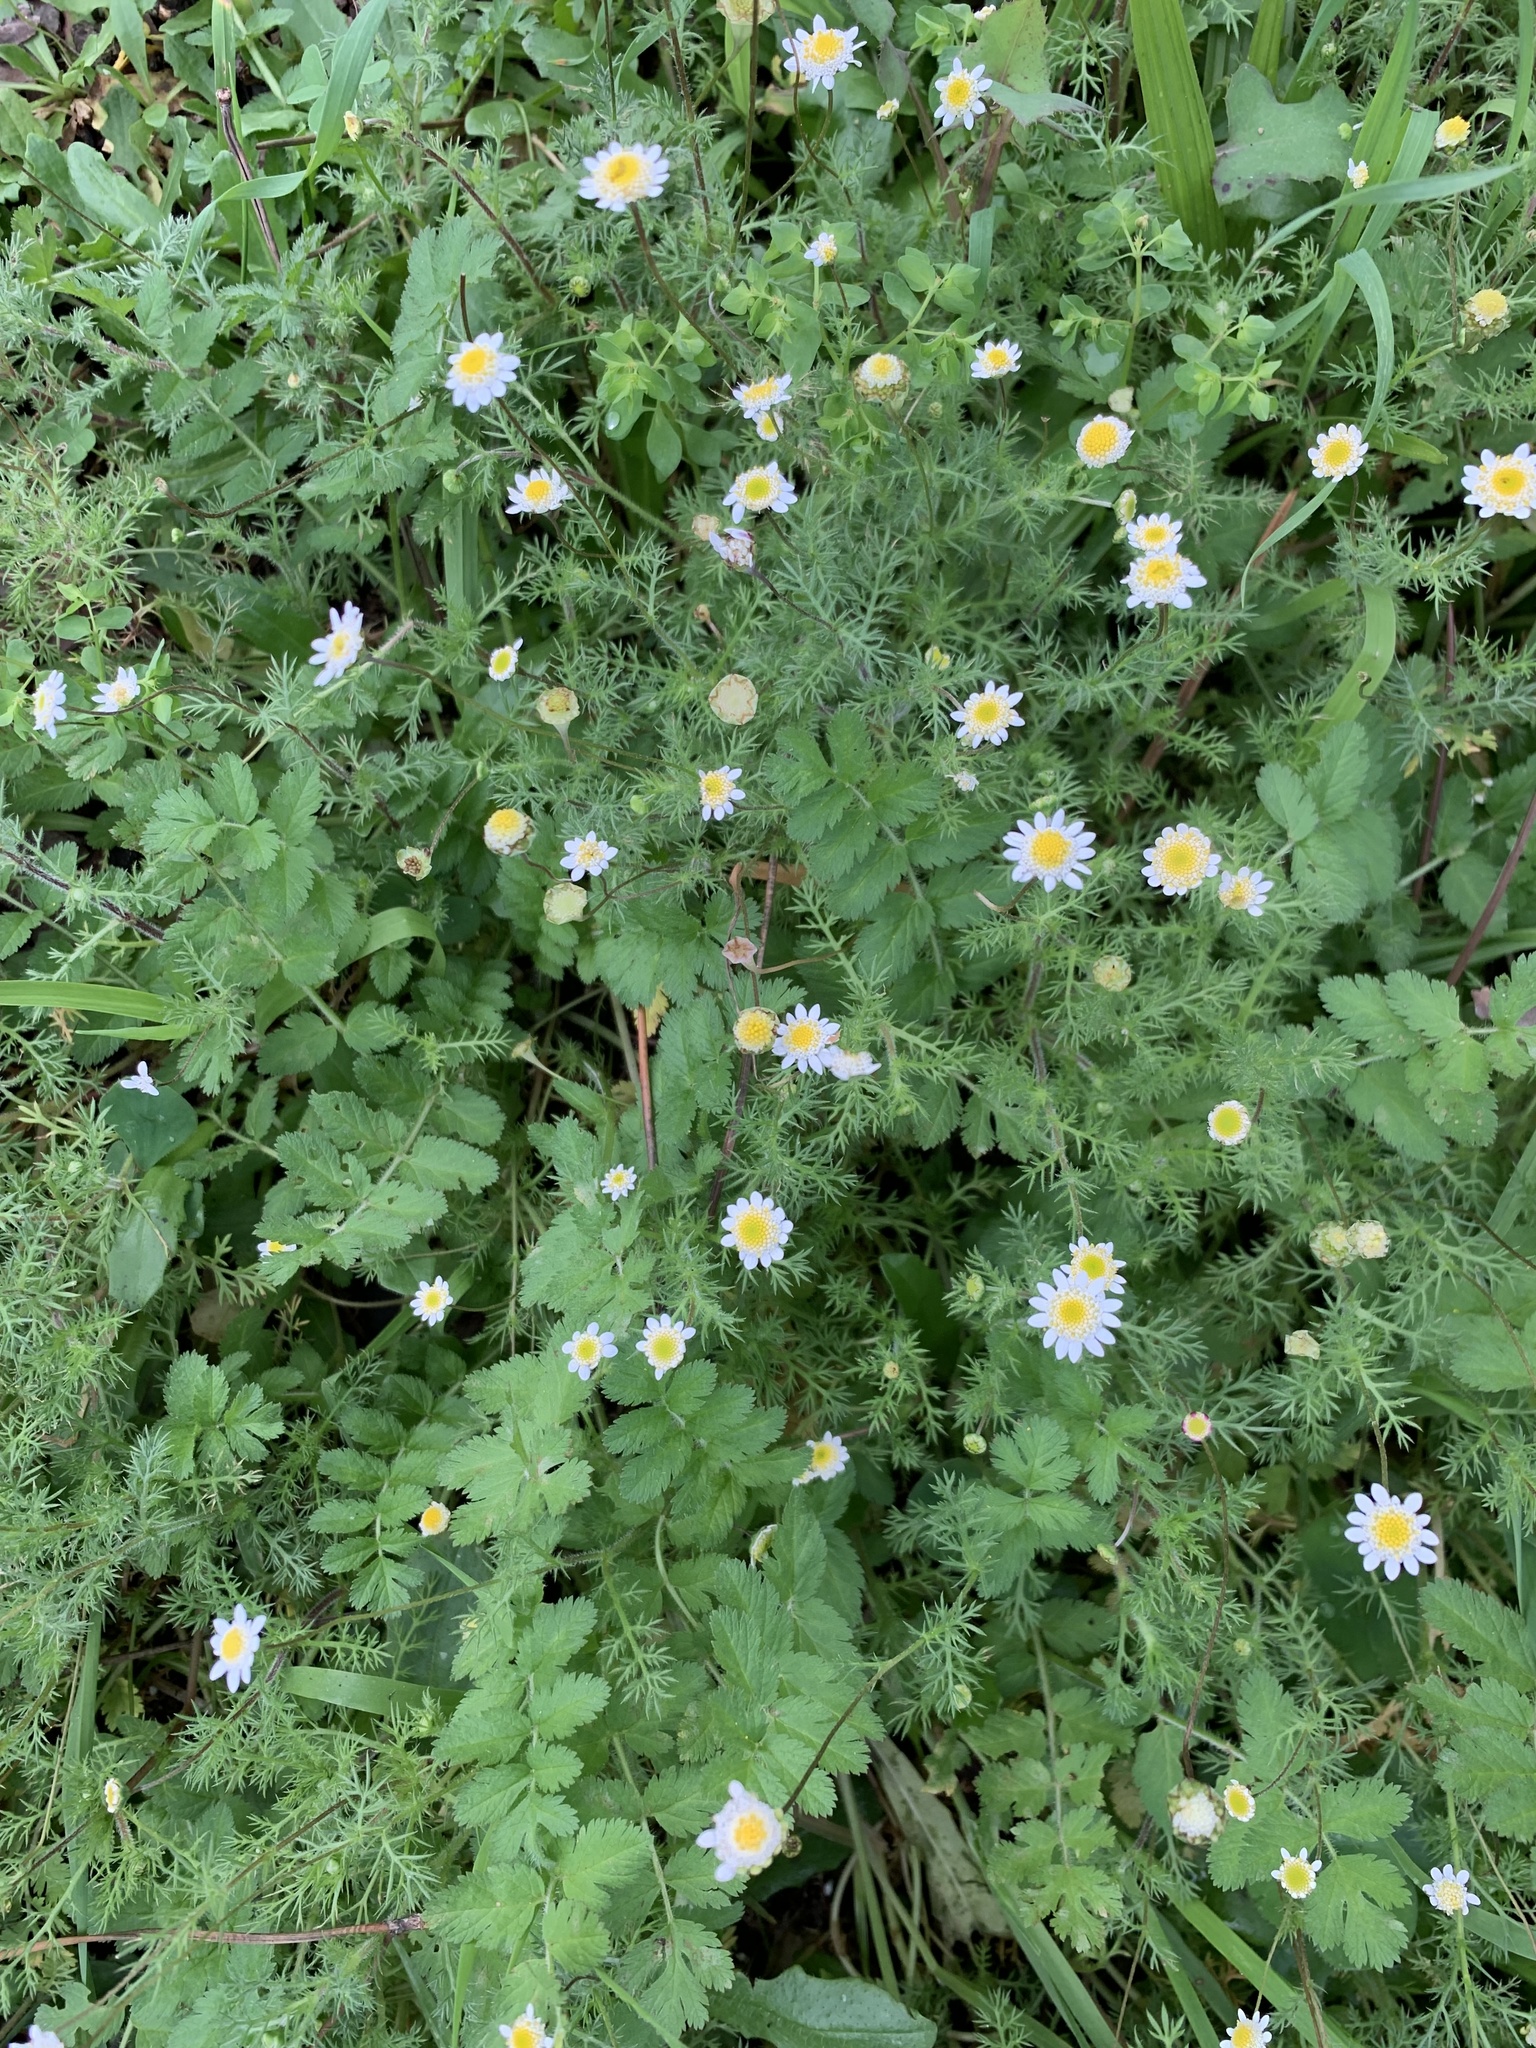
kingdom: Plantae
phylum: Tracheophyta
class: Magnoliopsida
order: Asterales
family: Asteraceae
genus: Cotula
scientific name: Cotula turbinata
